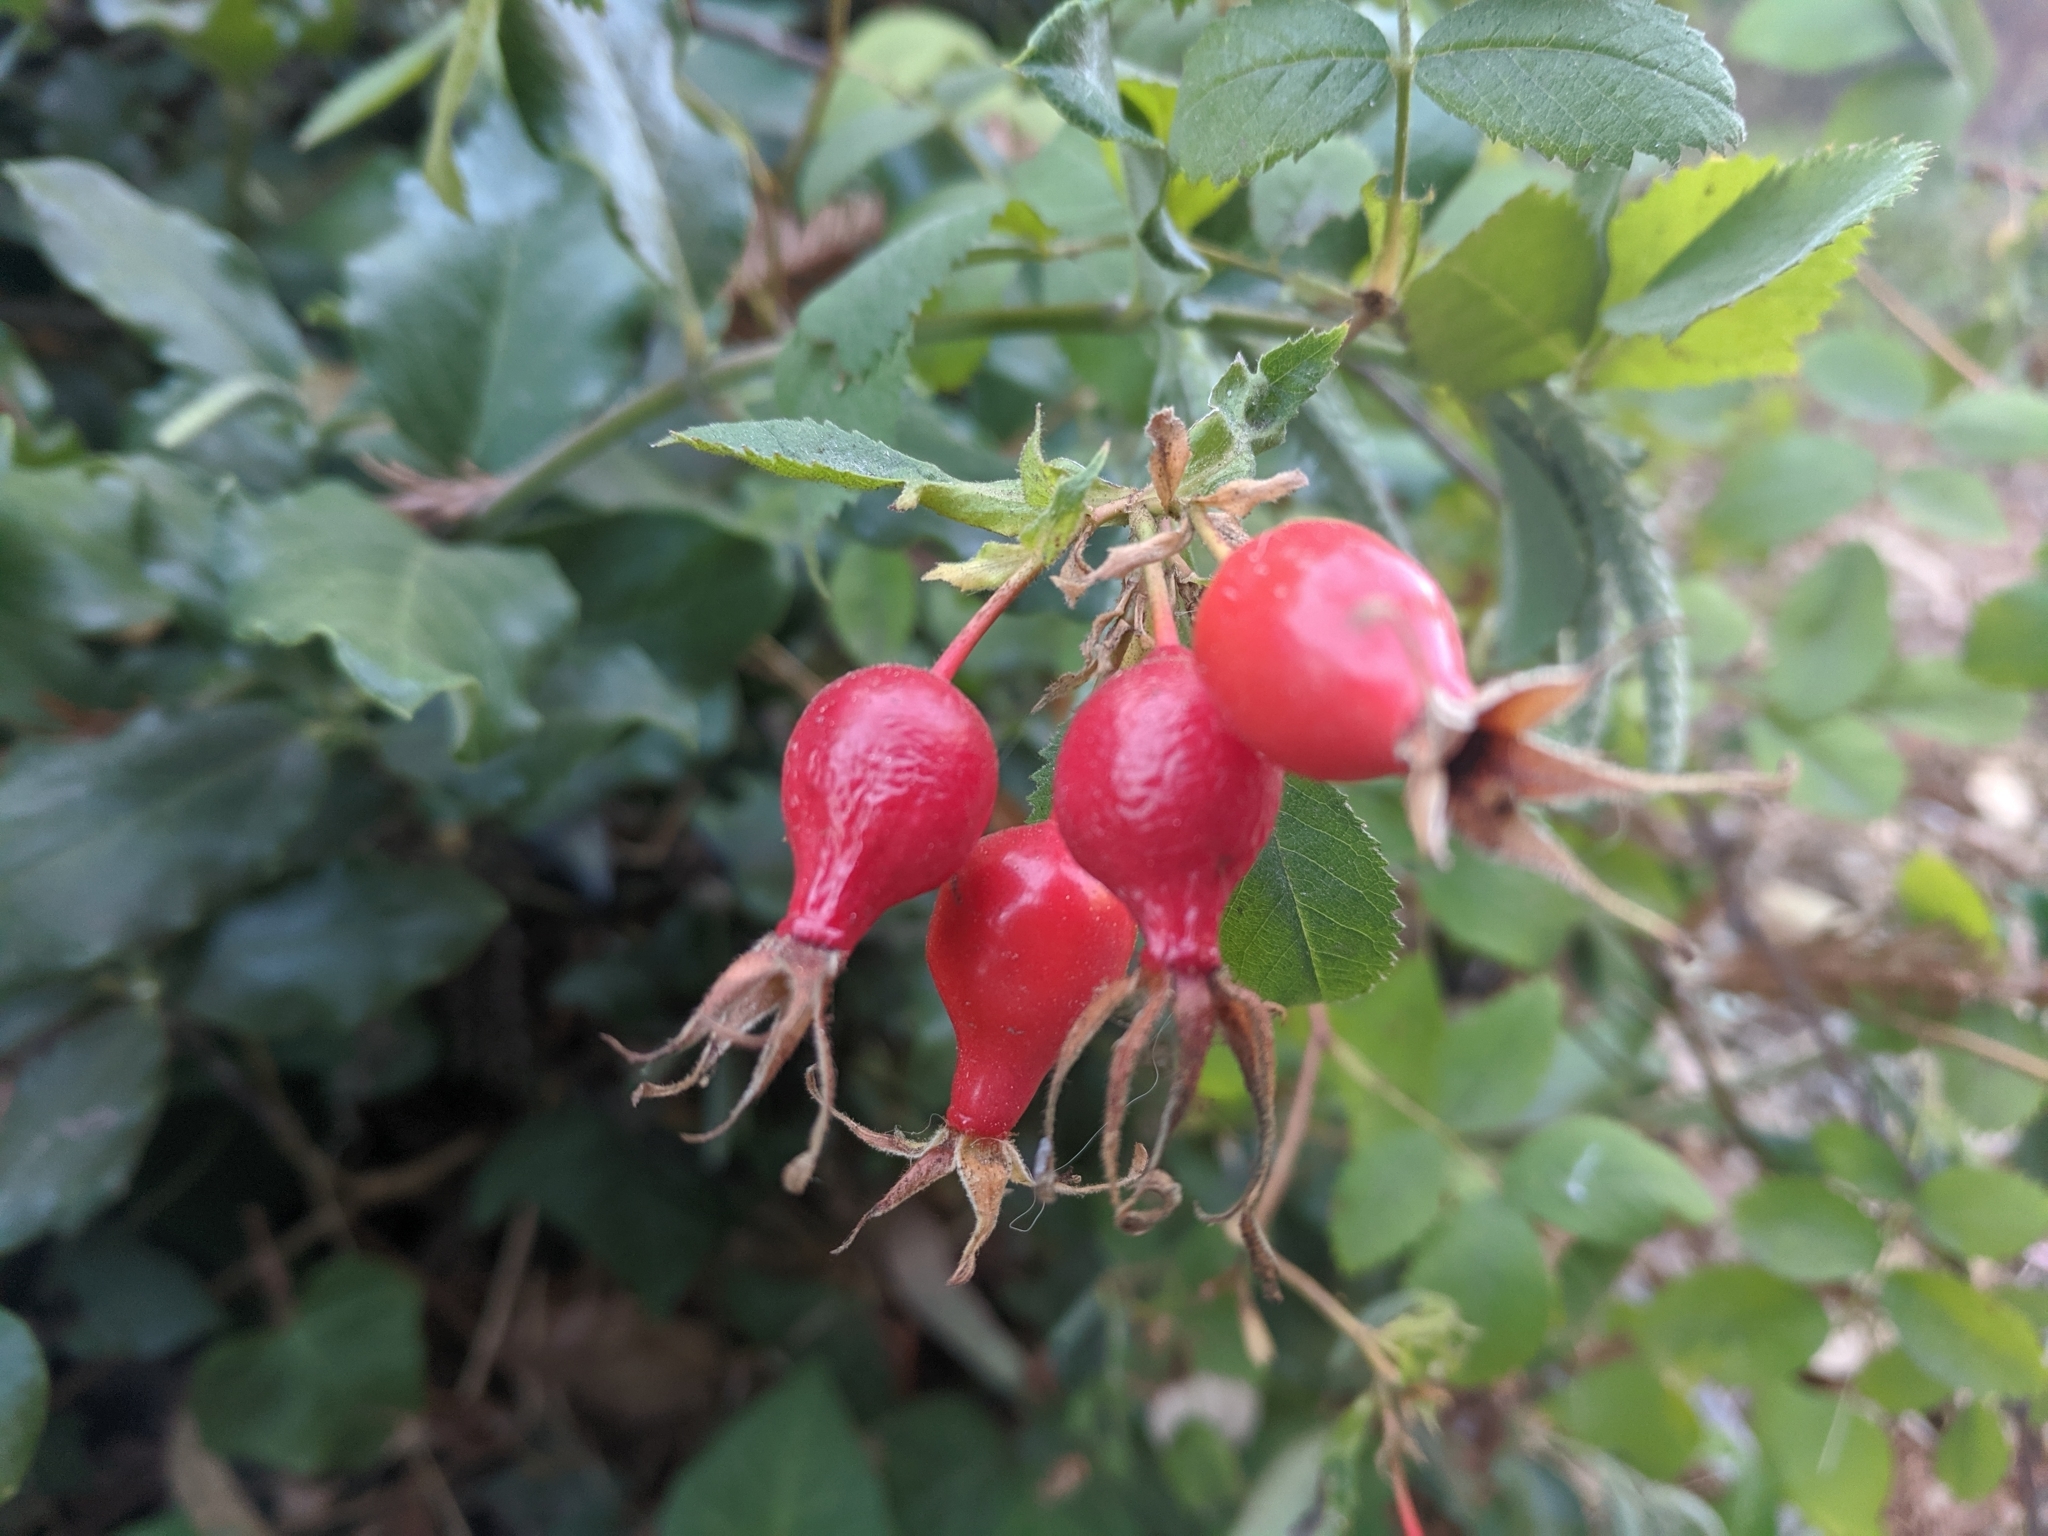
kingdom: Plantae
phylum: Tracheophyta
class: Magnoliopsida
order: Rosales
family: Rosaceae
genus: Rosa
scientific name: Rosa californica
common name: California rose
